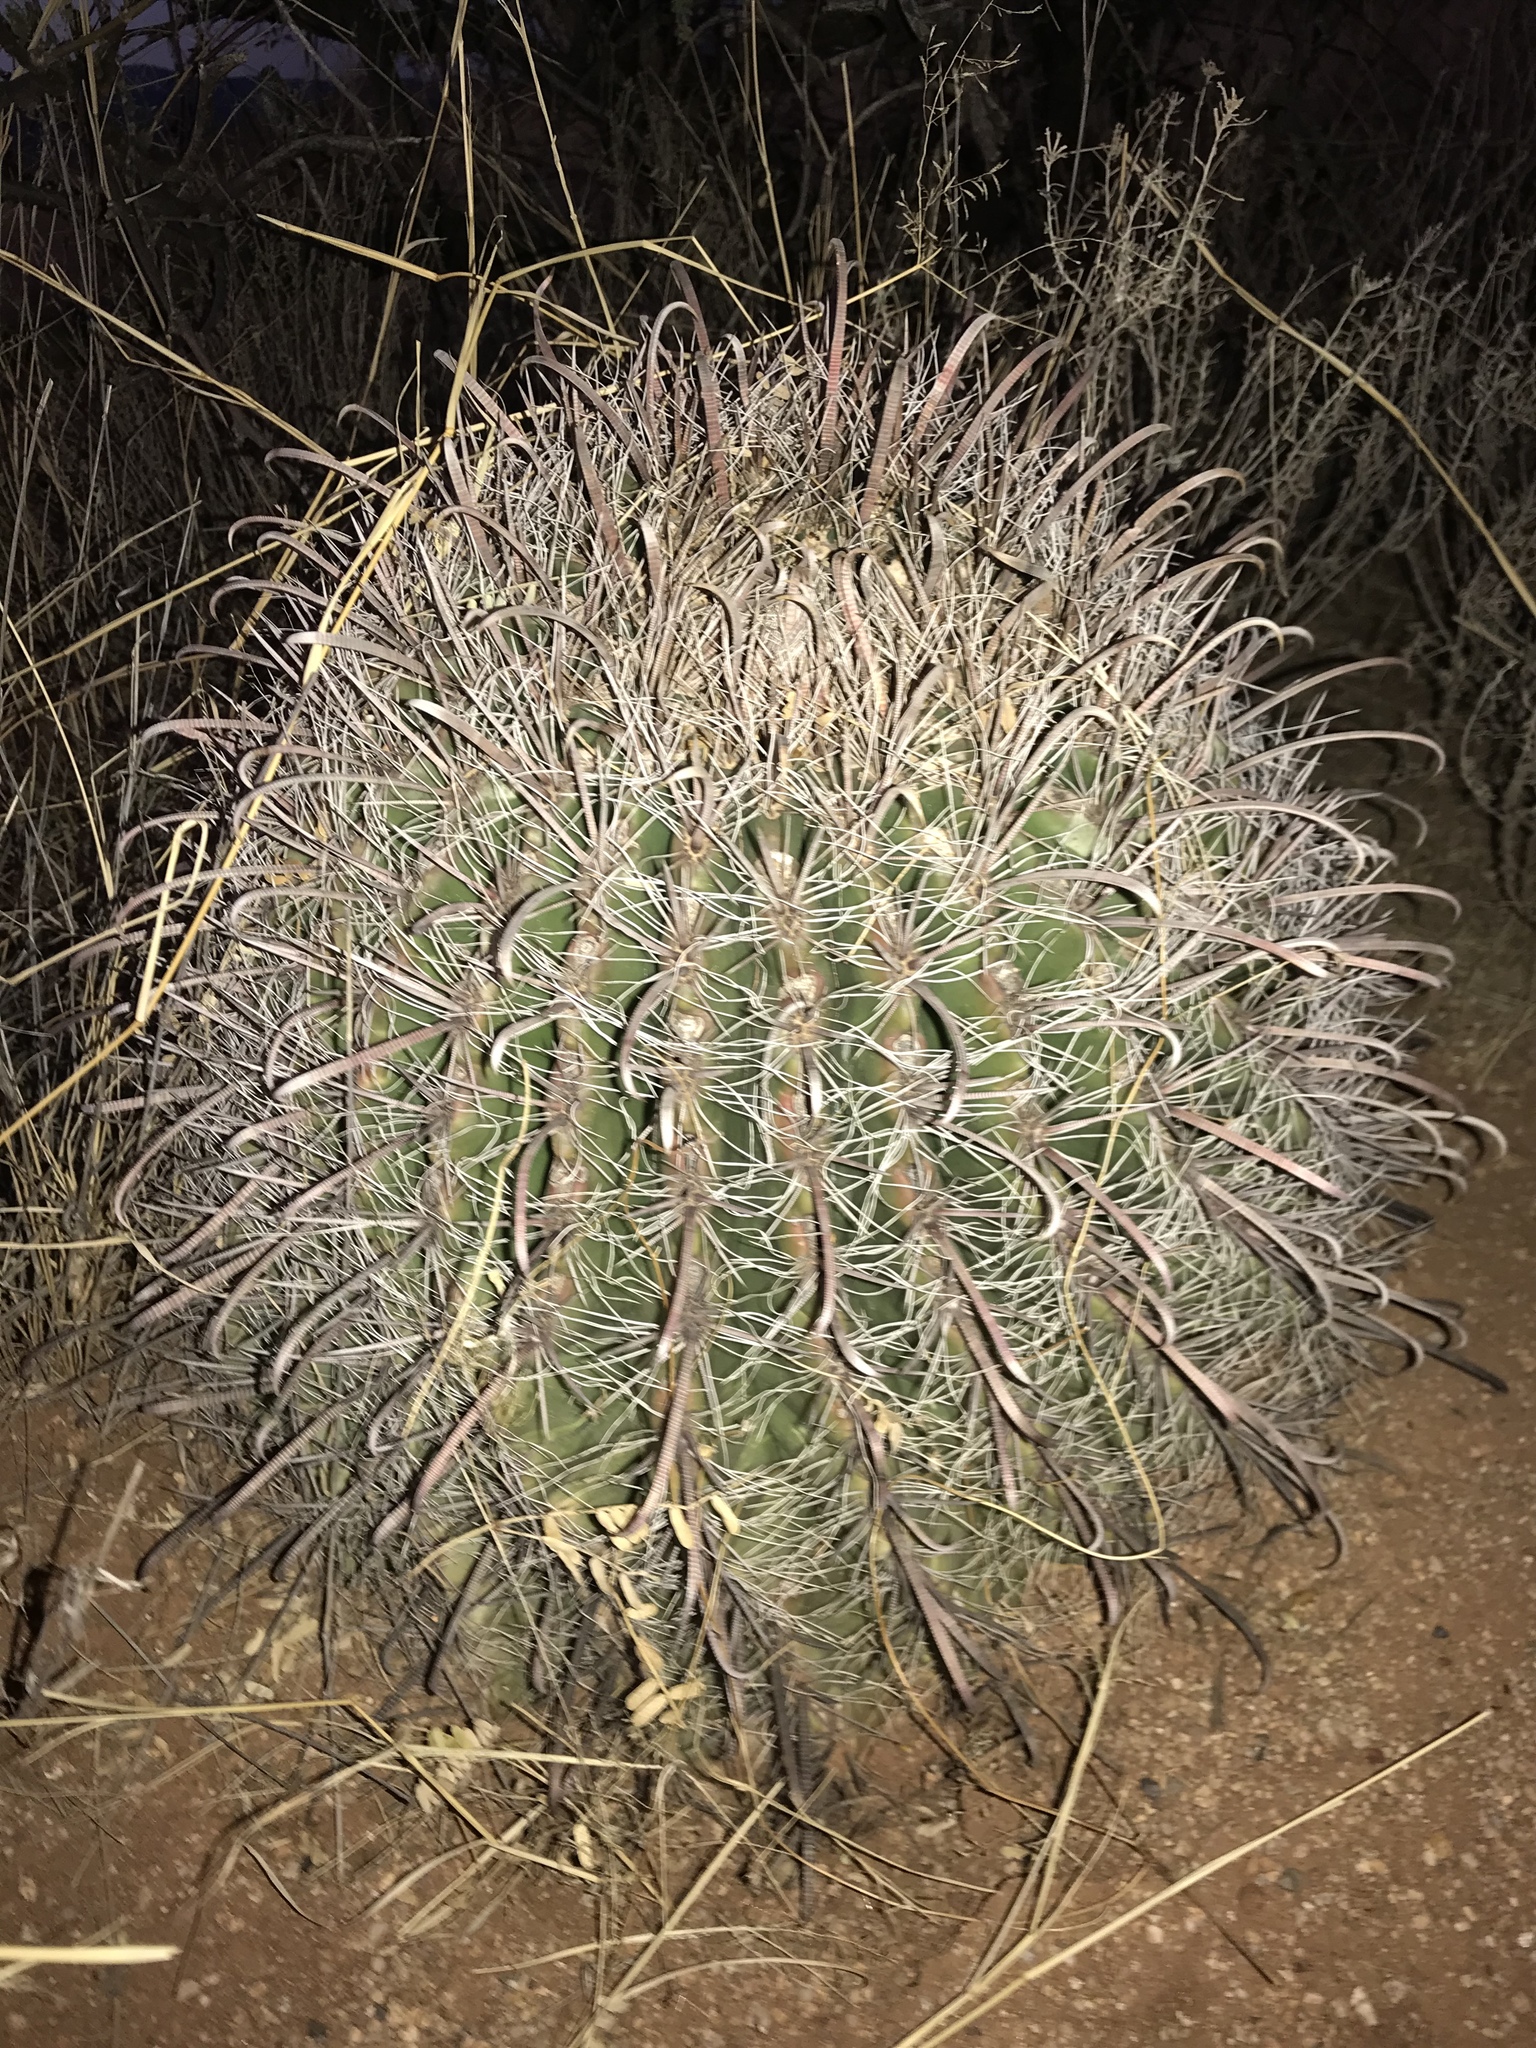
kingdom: Plantae
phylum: Tracheophyta
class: Magnoliopsida
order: Caryophyllales
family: Cactaceae
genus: Ferocactus
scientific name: Ferocactus wislizeni
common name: Candy barrel cactus
